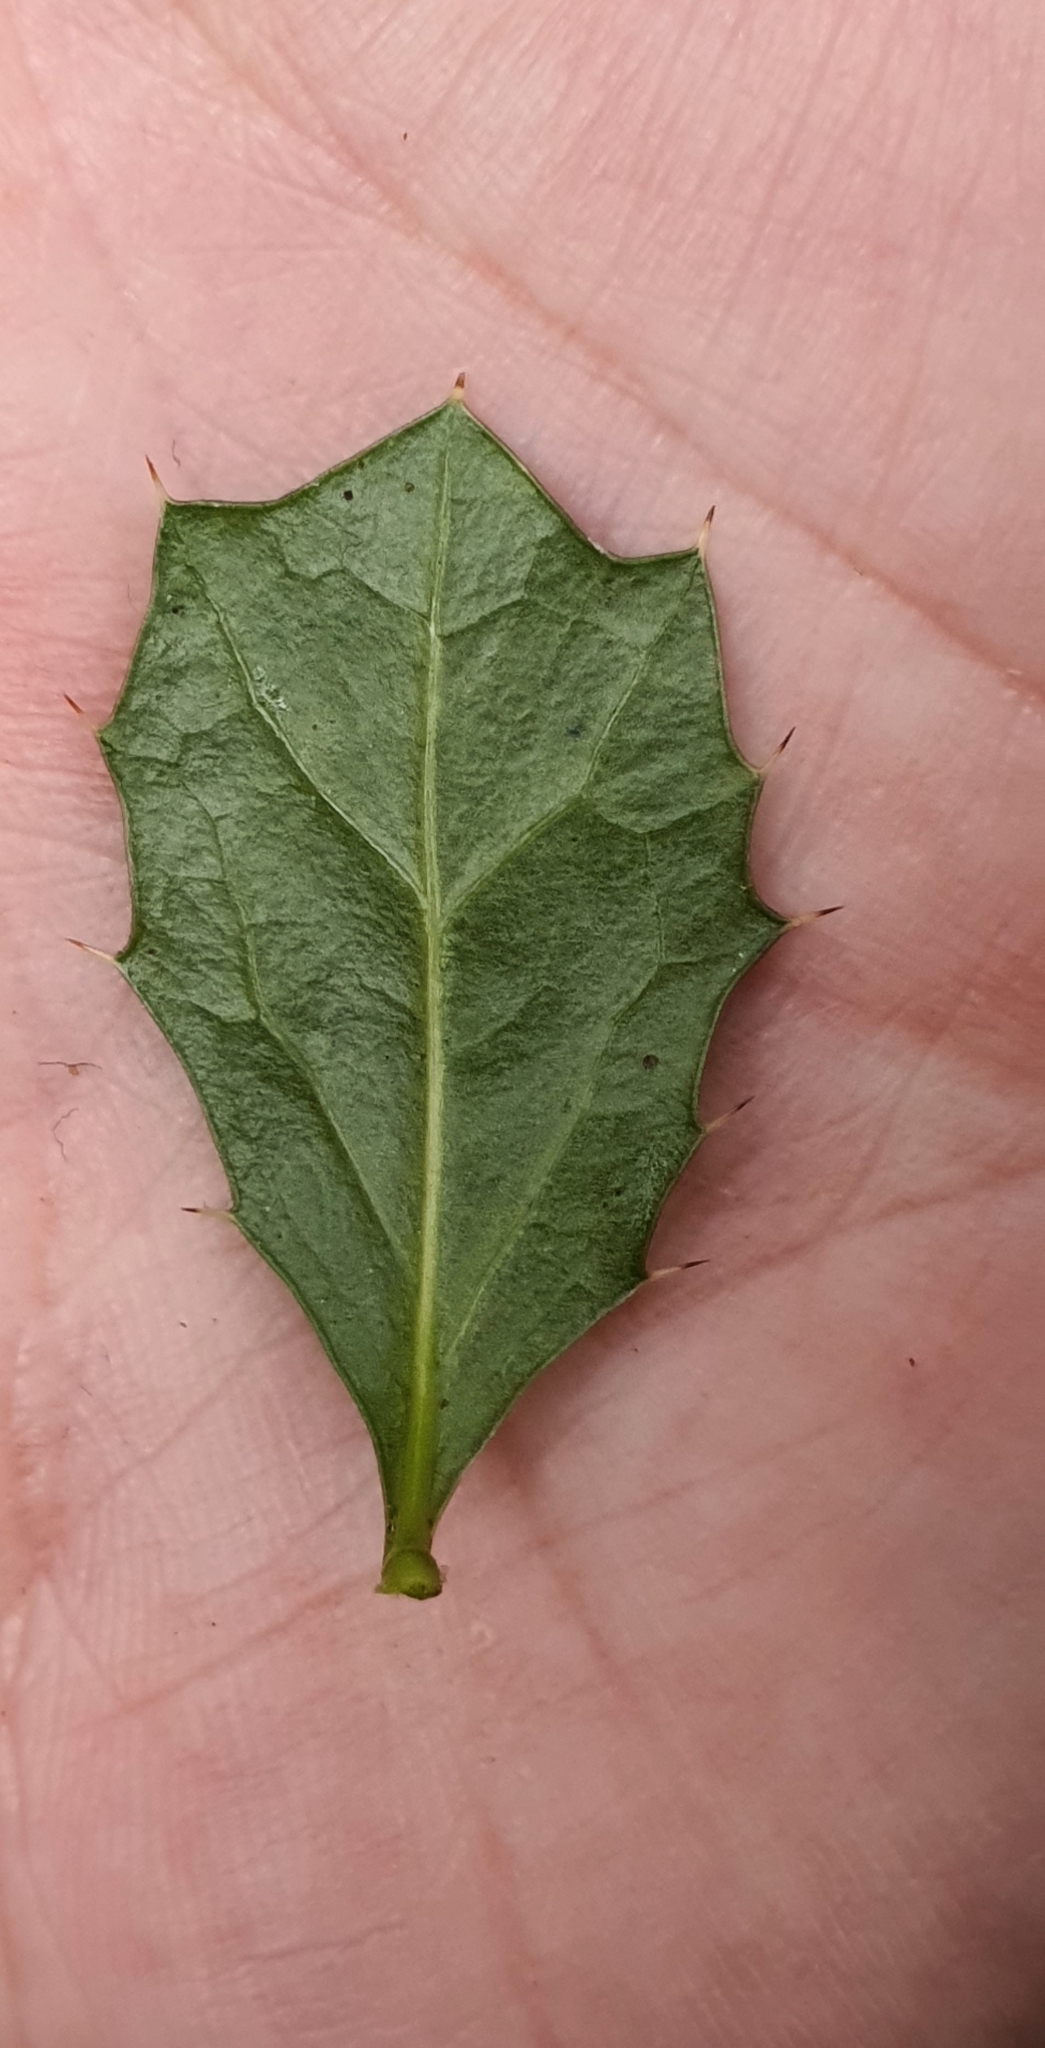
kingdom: Plantae
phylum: Tracheophyta
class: Magnoliopsida
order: Ranunculales
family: Berberidaceae
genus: Berberis
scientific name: Berberis darwinii
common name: Darwin's barberry
